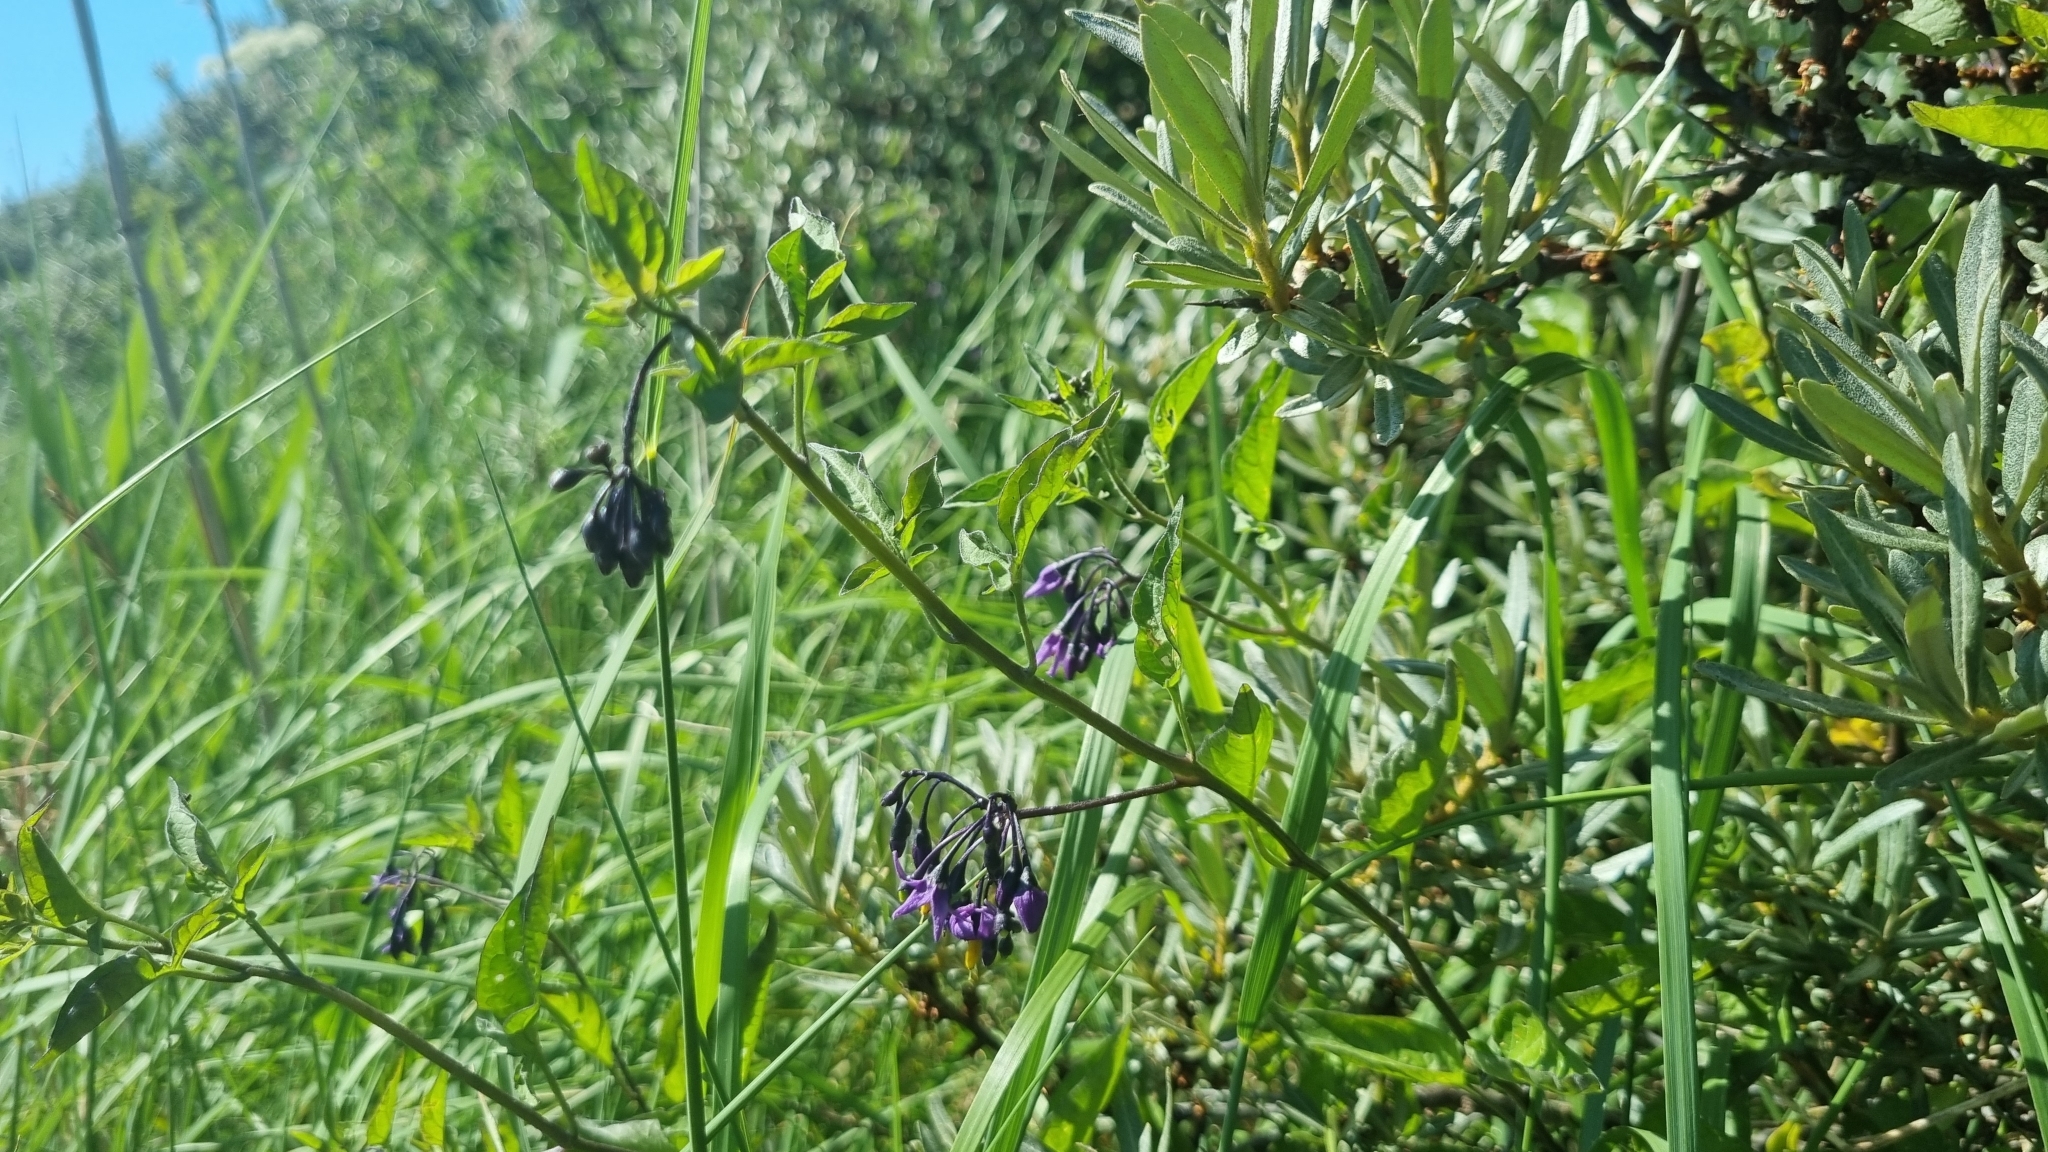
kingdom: Plantae
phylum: Tracheophyta
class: Magnoliopsida
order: Solanales
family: Solanaceae
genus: Solanum
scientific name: Solanum dulcamara
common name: Climbing nightshade
